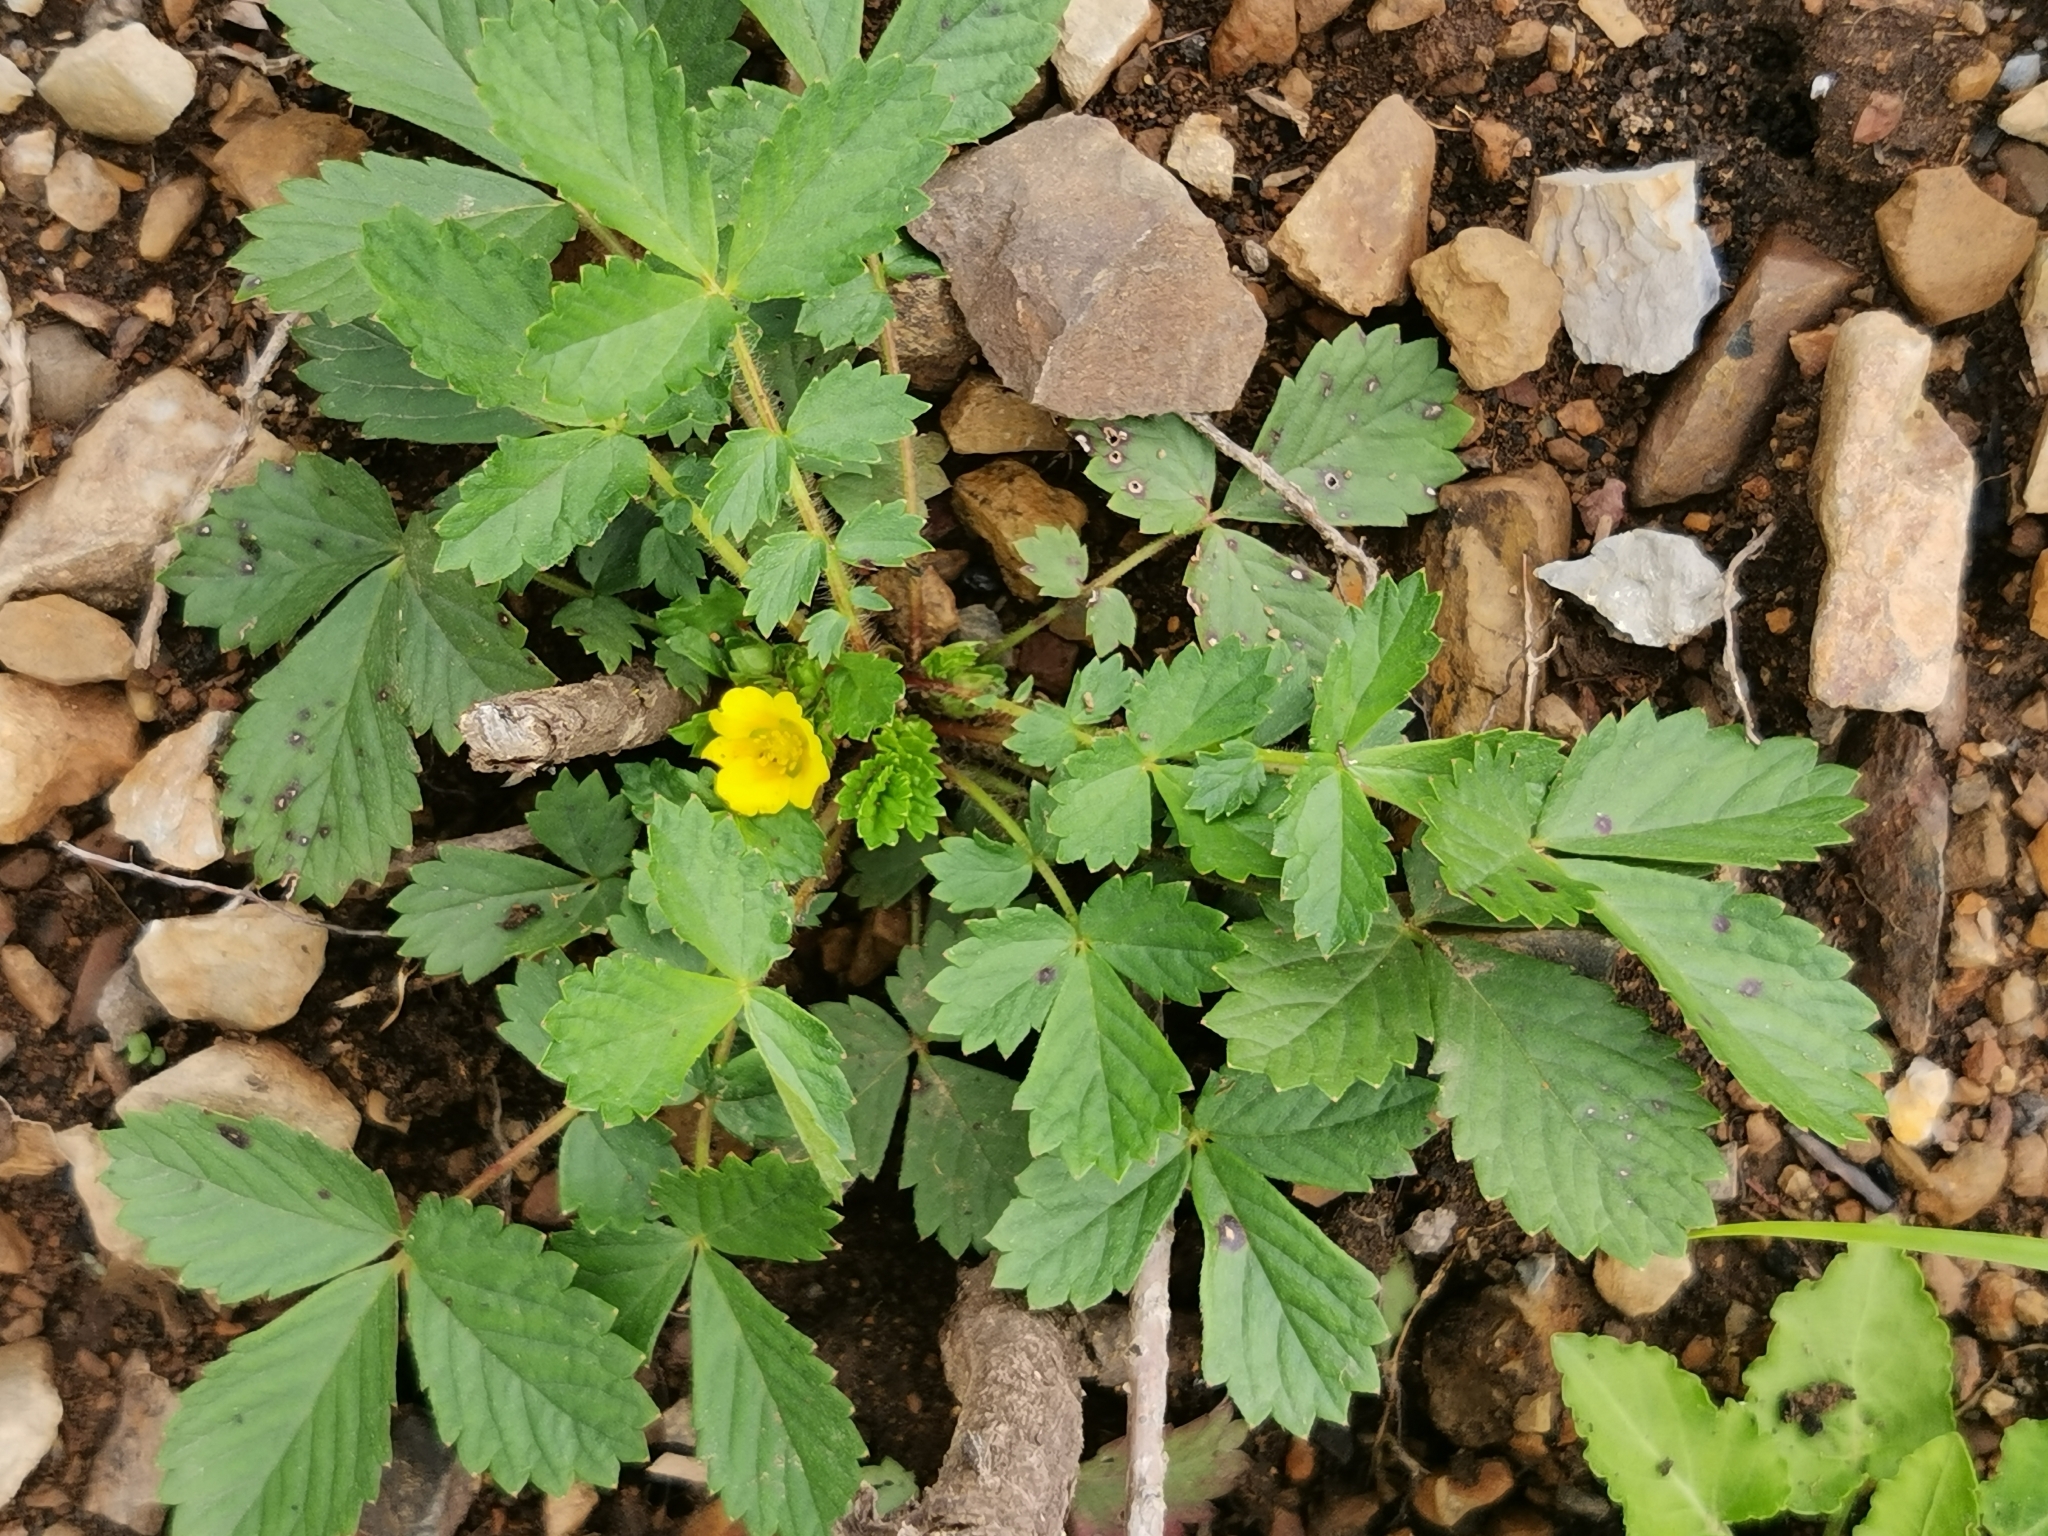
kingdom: Plantae
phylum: Tracheophyta
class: Magnoliopsida
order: Rosales
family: Rosaceae
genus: Potentilla
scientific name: Potentilla fragarioides
